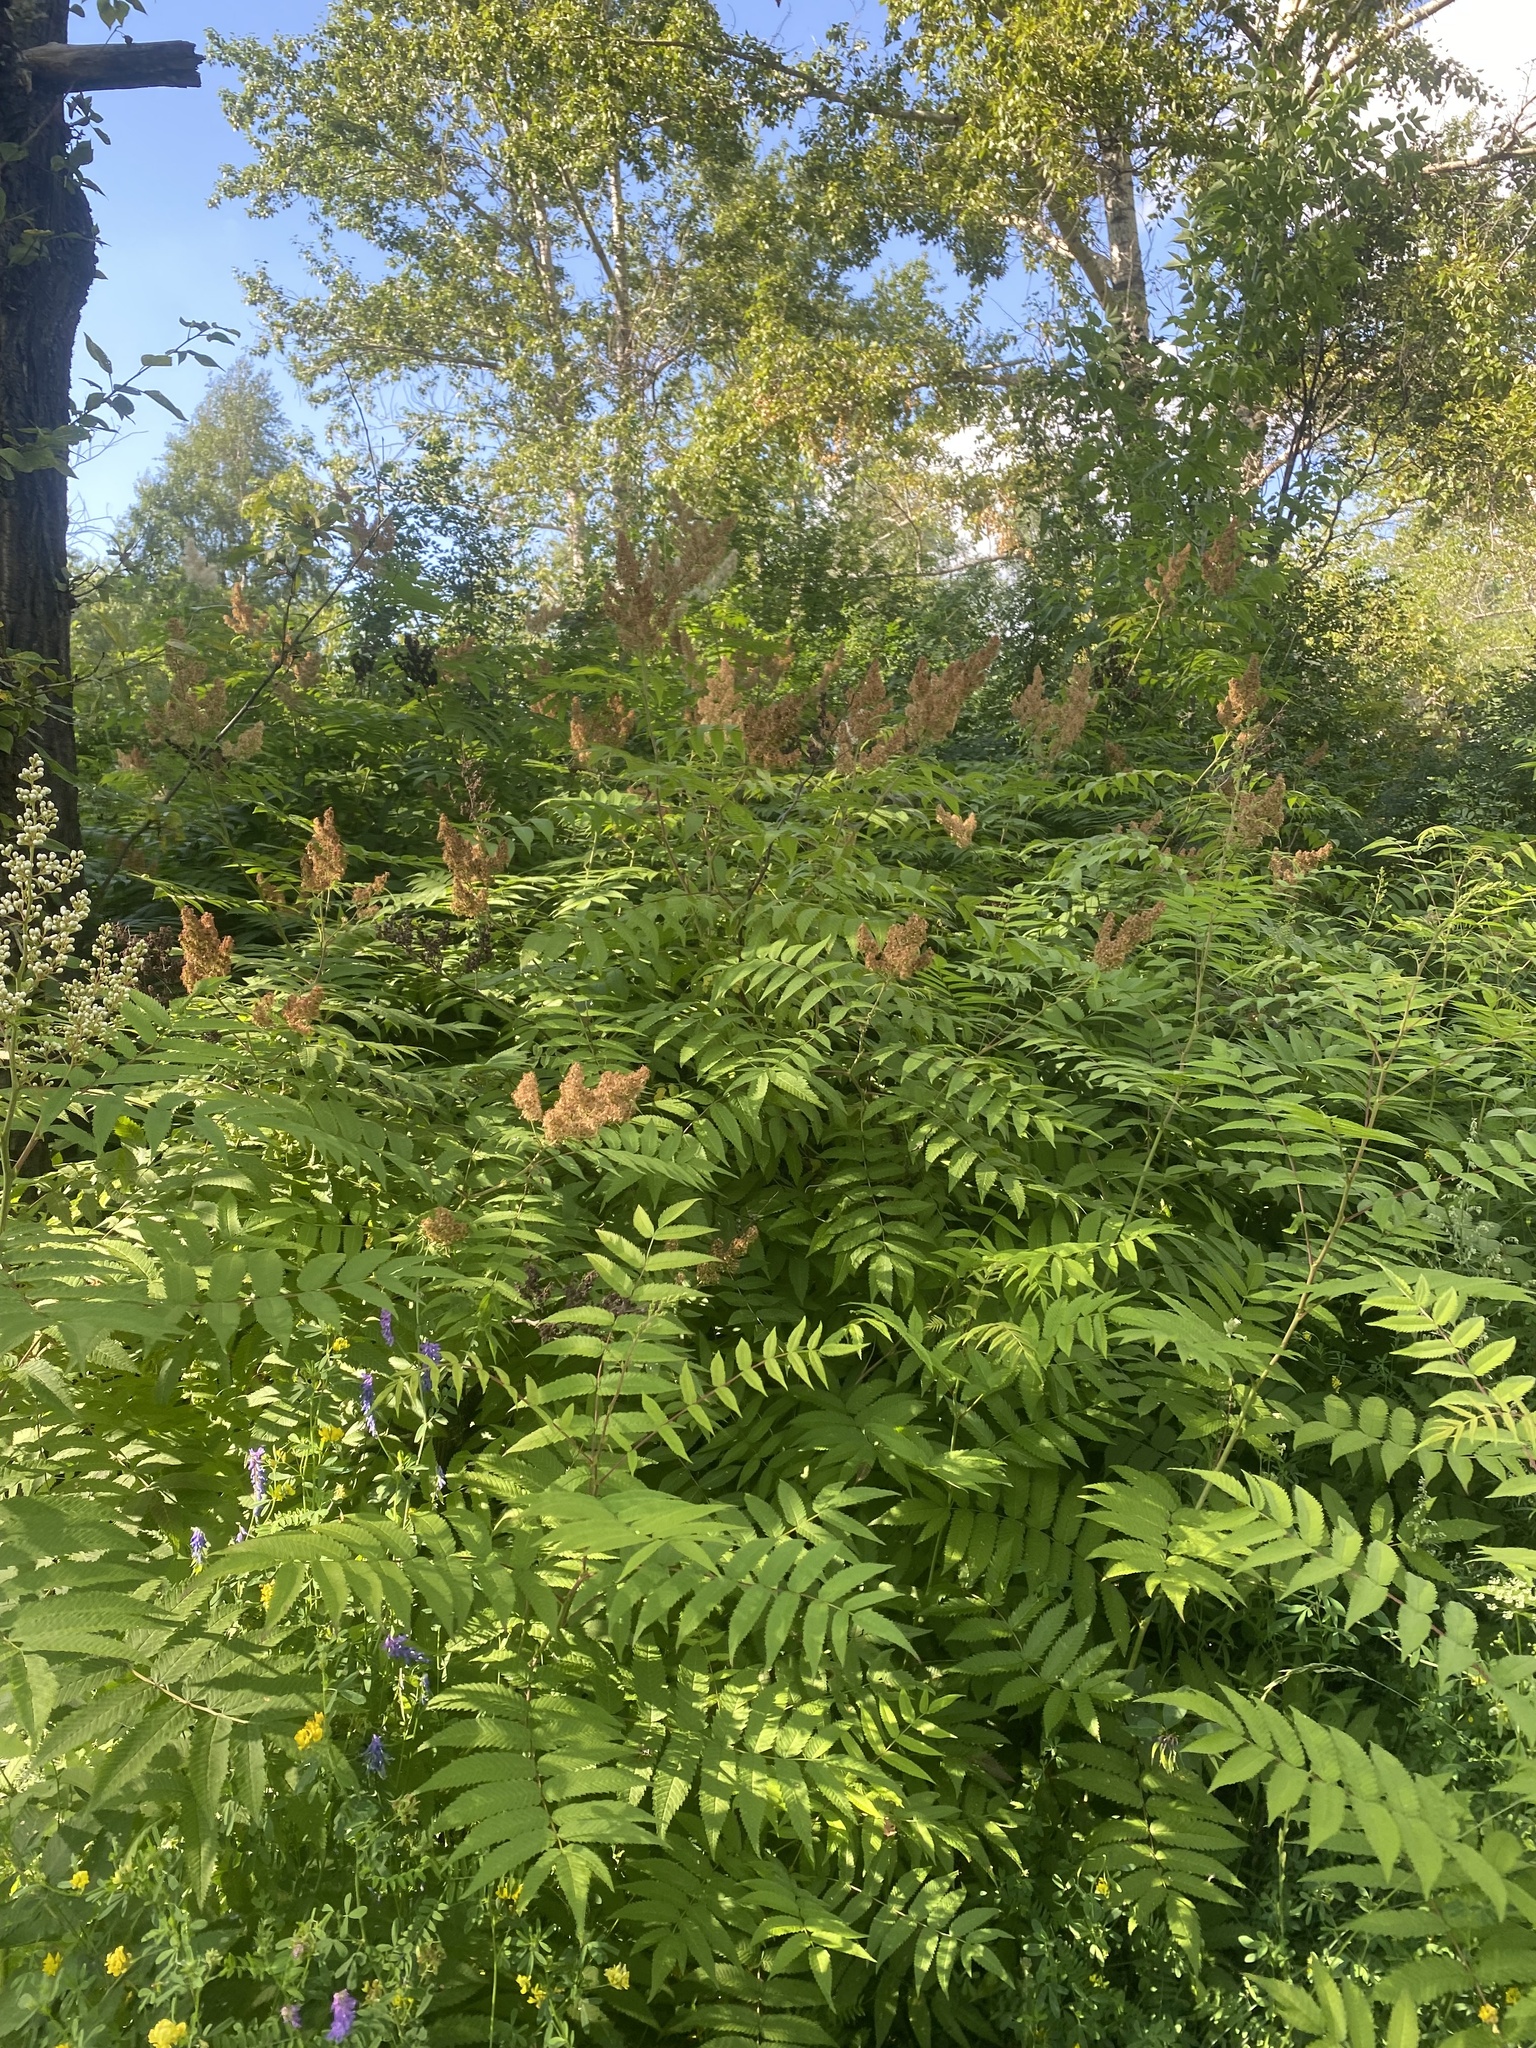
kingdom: Plantae
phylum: Tracheophyta
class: Magnoliopsida
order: Rosales
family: Rosaceae
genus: Sorbaria
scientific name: Sorbaria sorbifolia
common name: False spiraea
